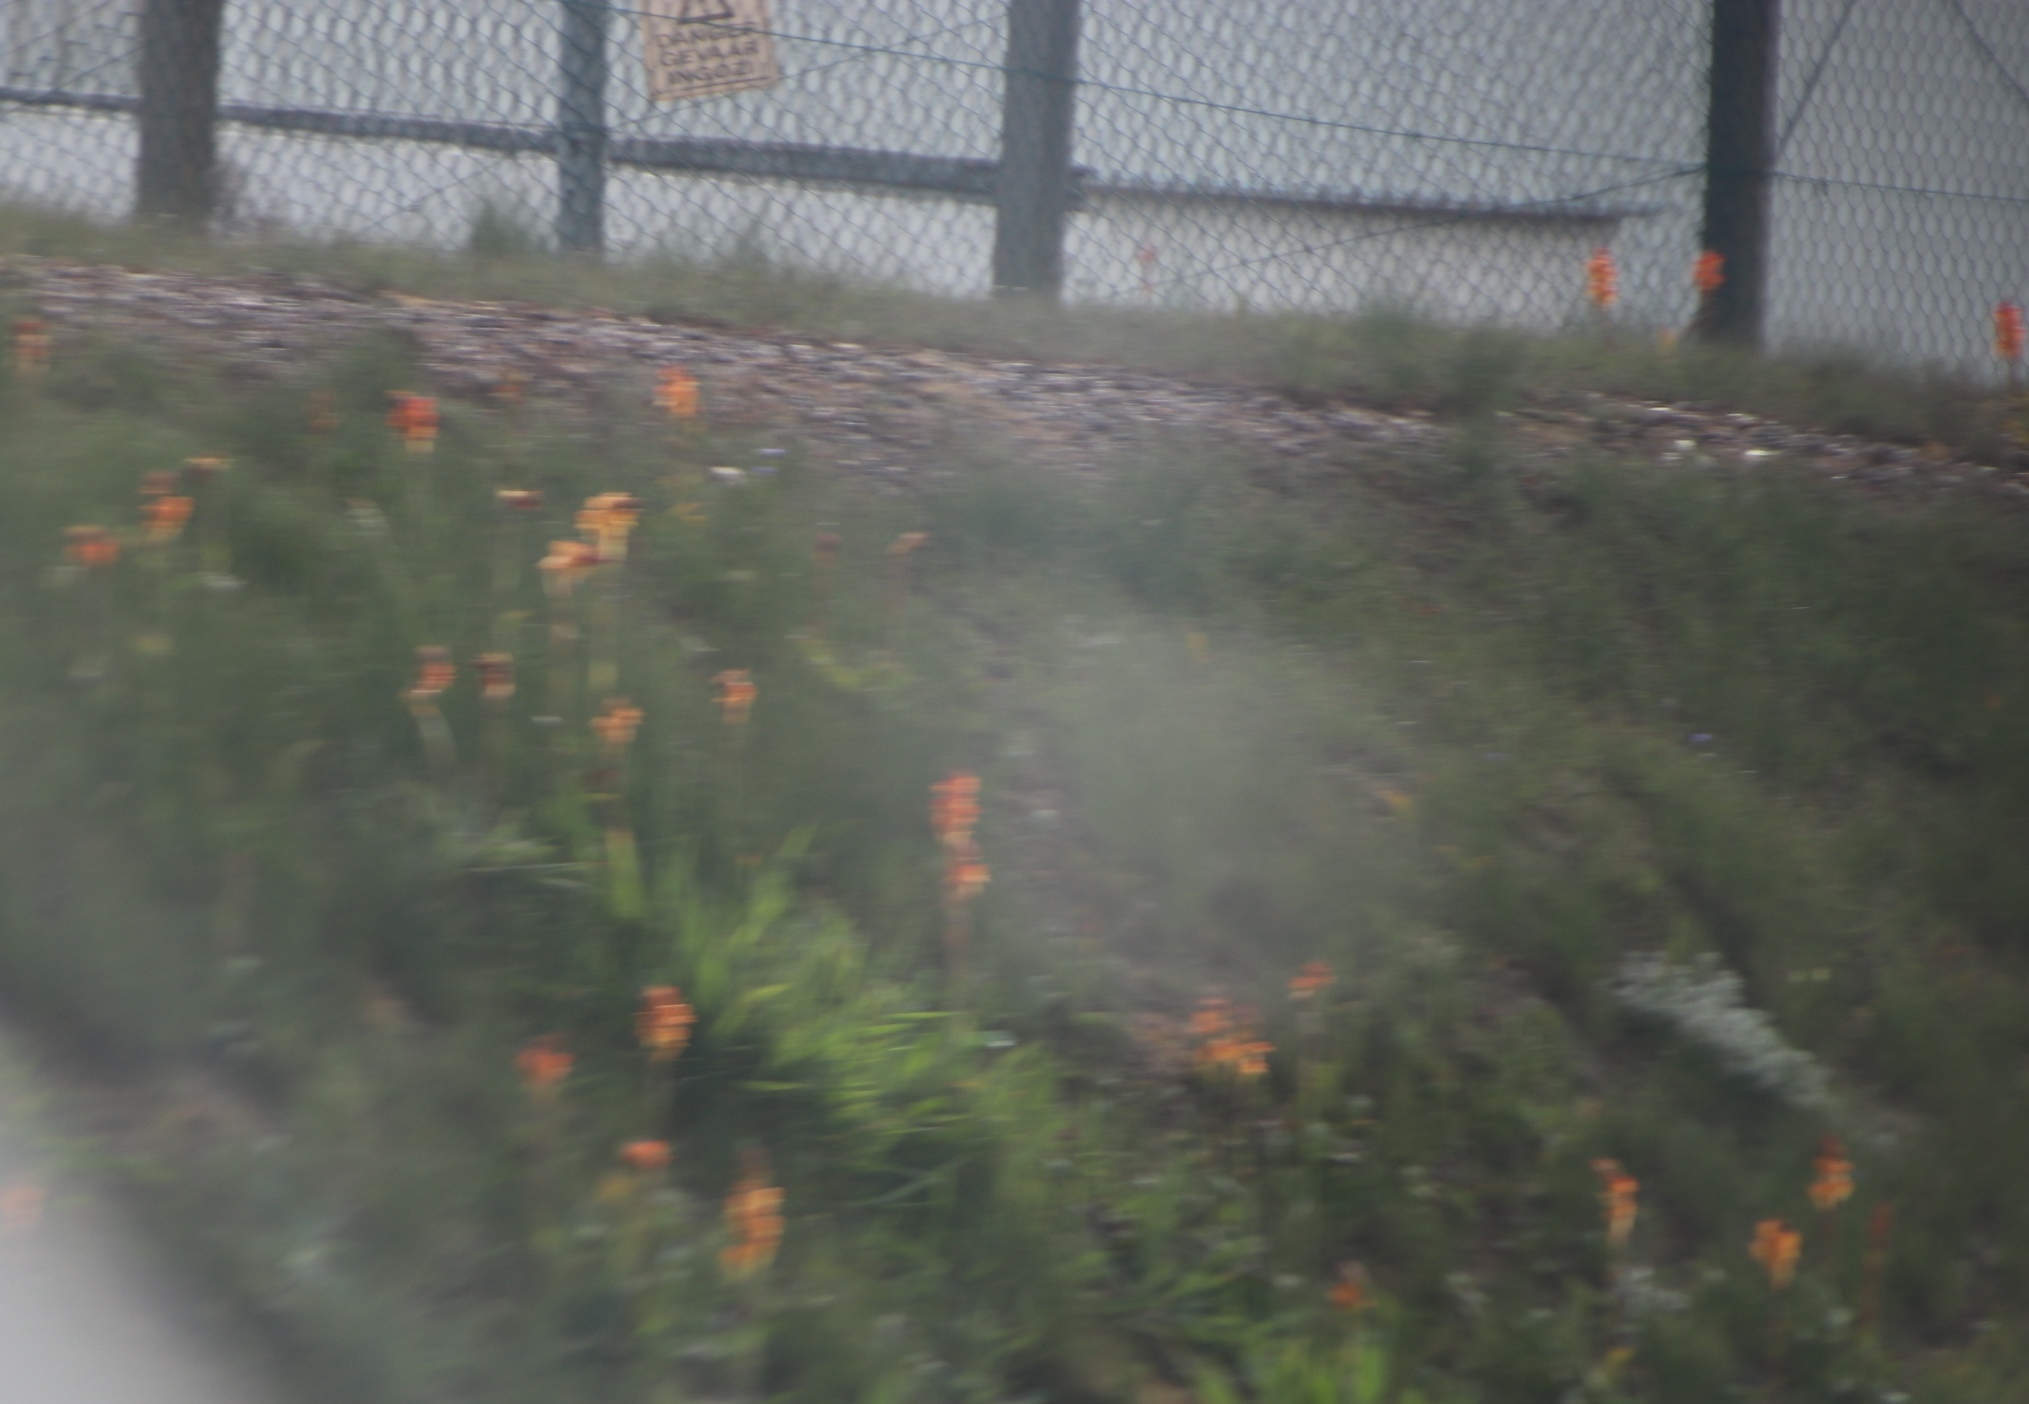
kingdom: Plantae
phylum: Tracheophyta
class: Liliopsida
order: Asparagales
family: Orchidaceae
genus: Satyrium
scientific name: Satyrium coriifolium
